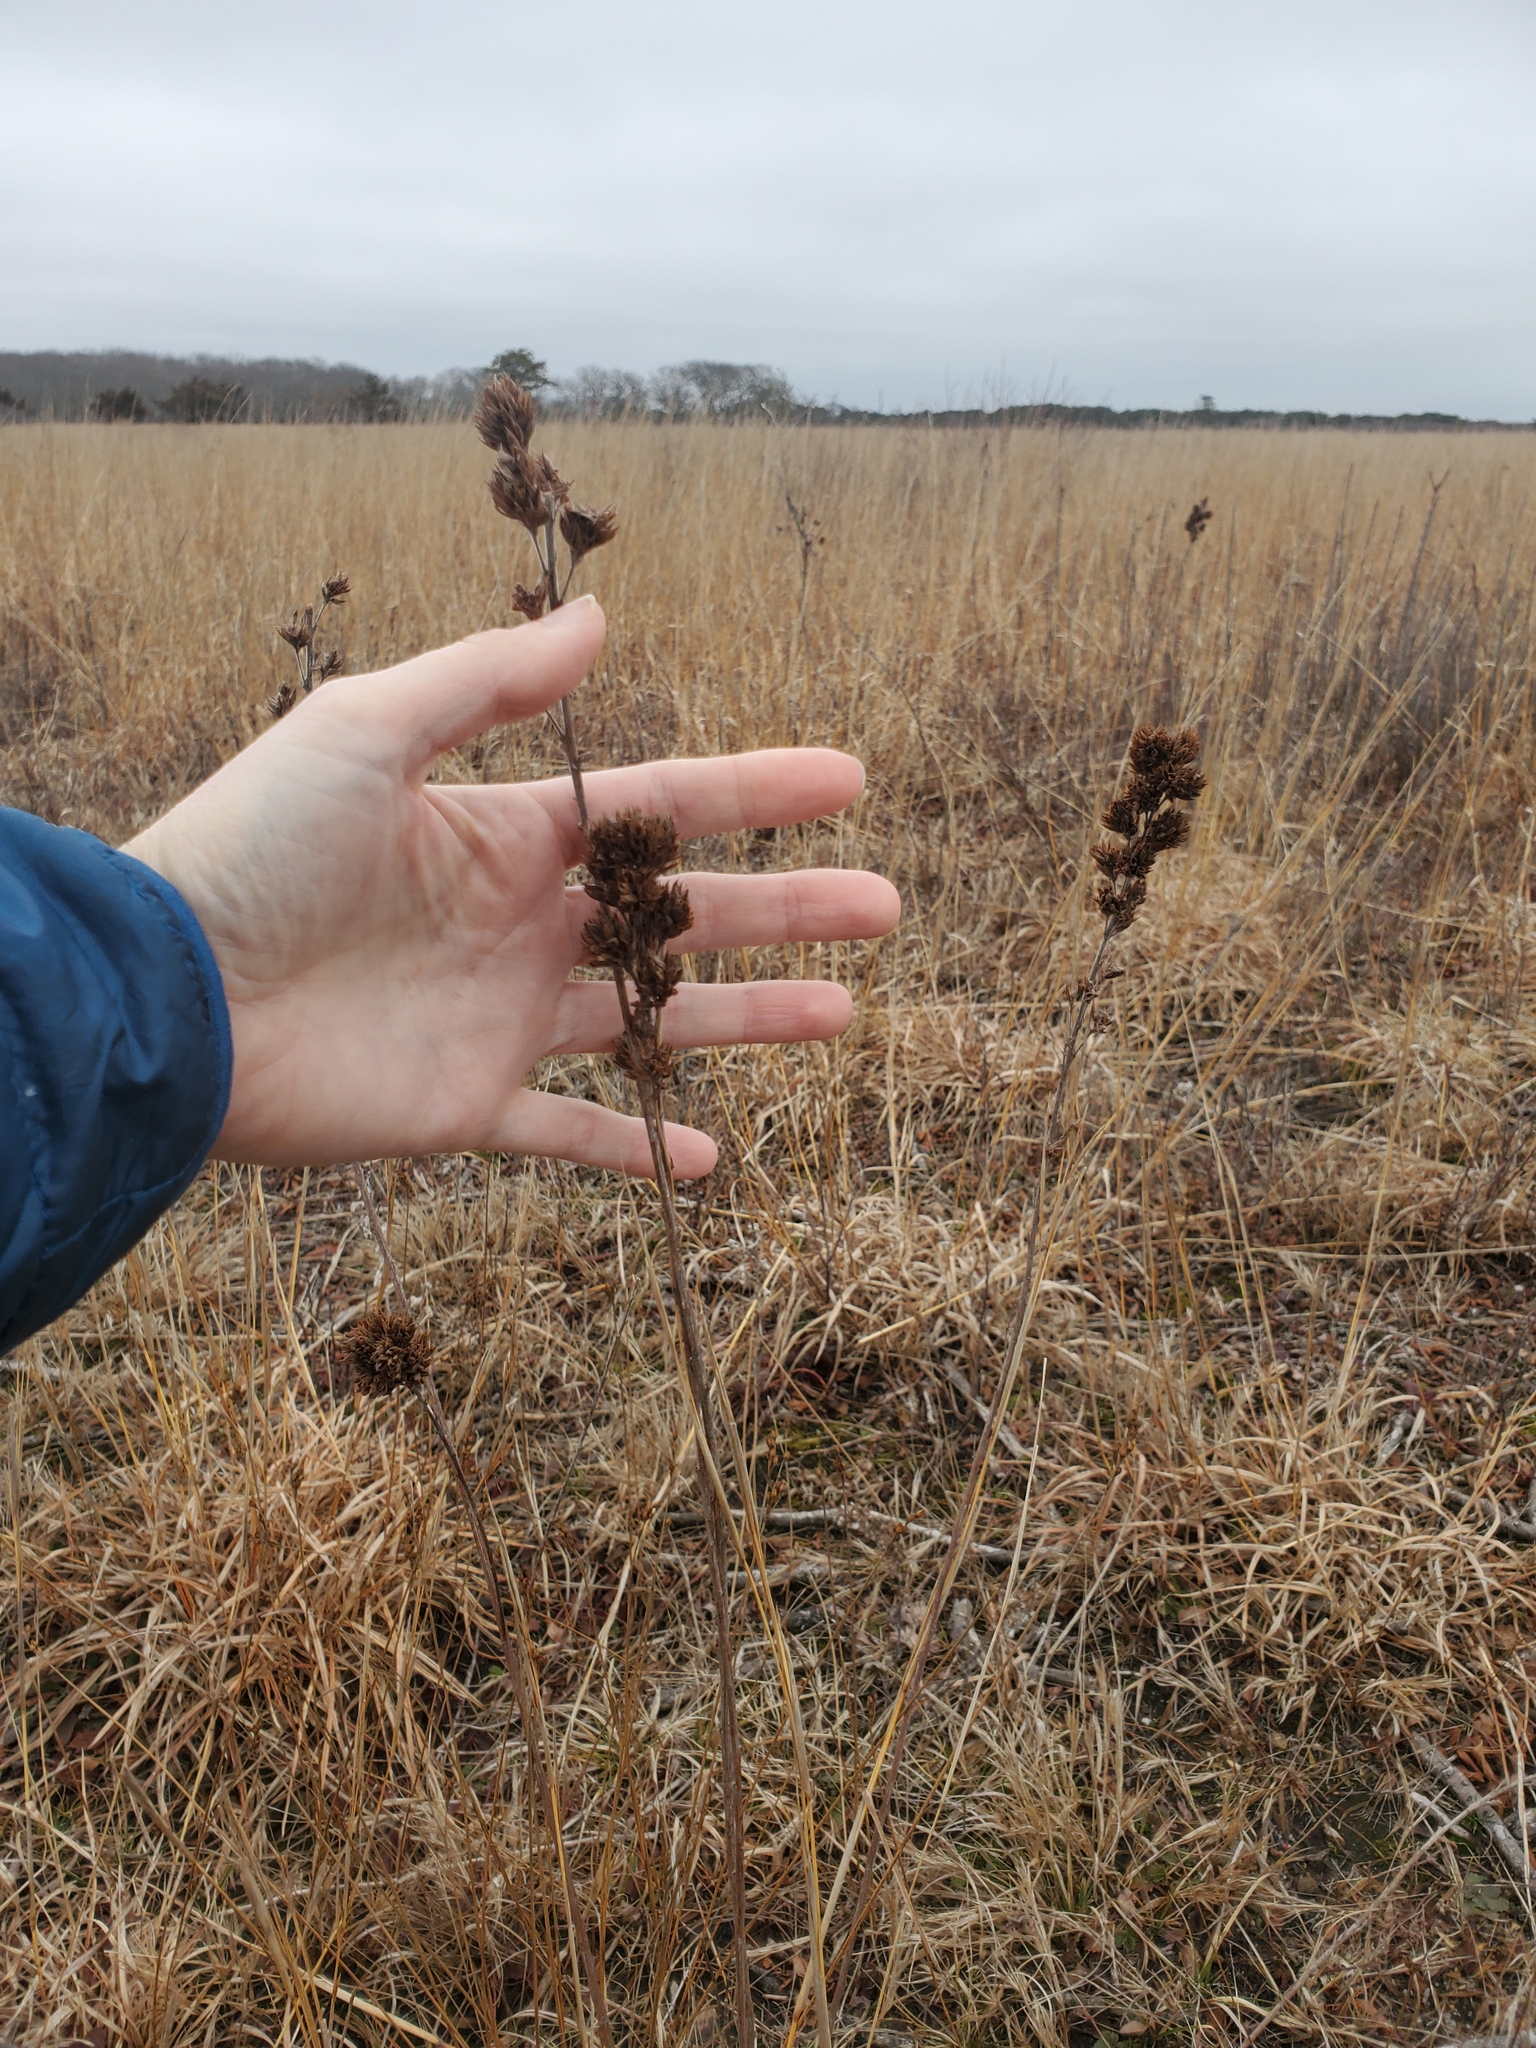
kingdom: Plantae
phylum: Tracheophyta
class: Magnoliopsida
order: Fabales
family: Fabaceae
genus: Lespedeza
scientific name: Lespedeza capitata
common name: Dusty clover
